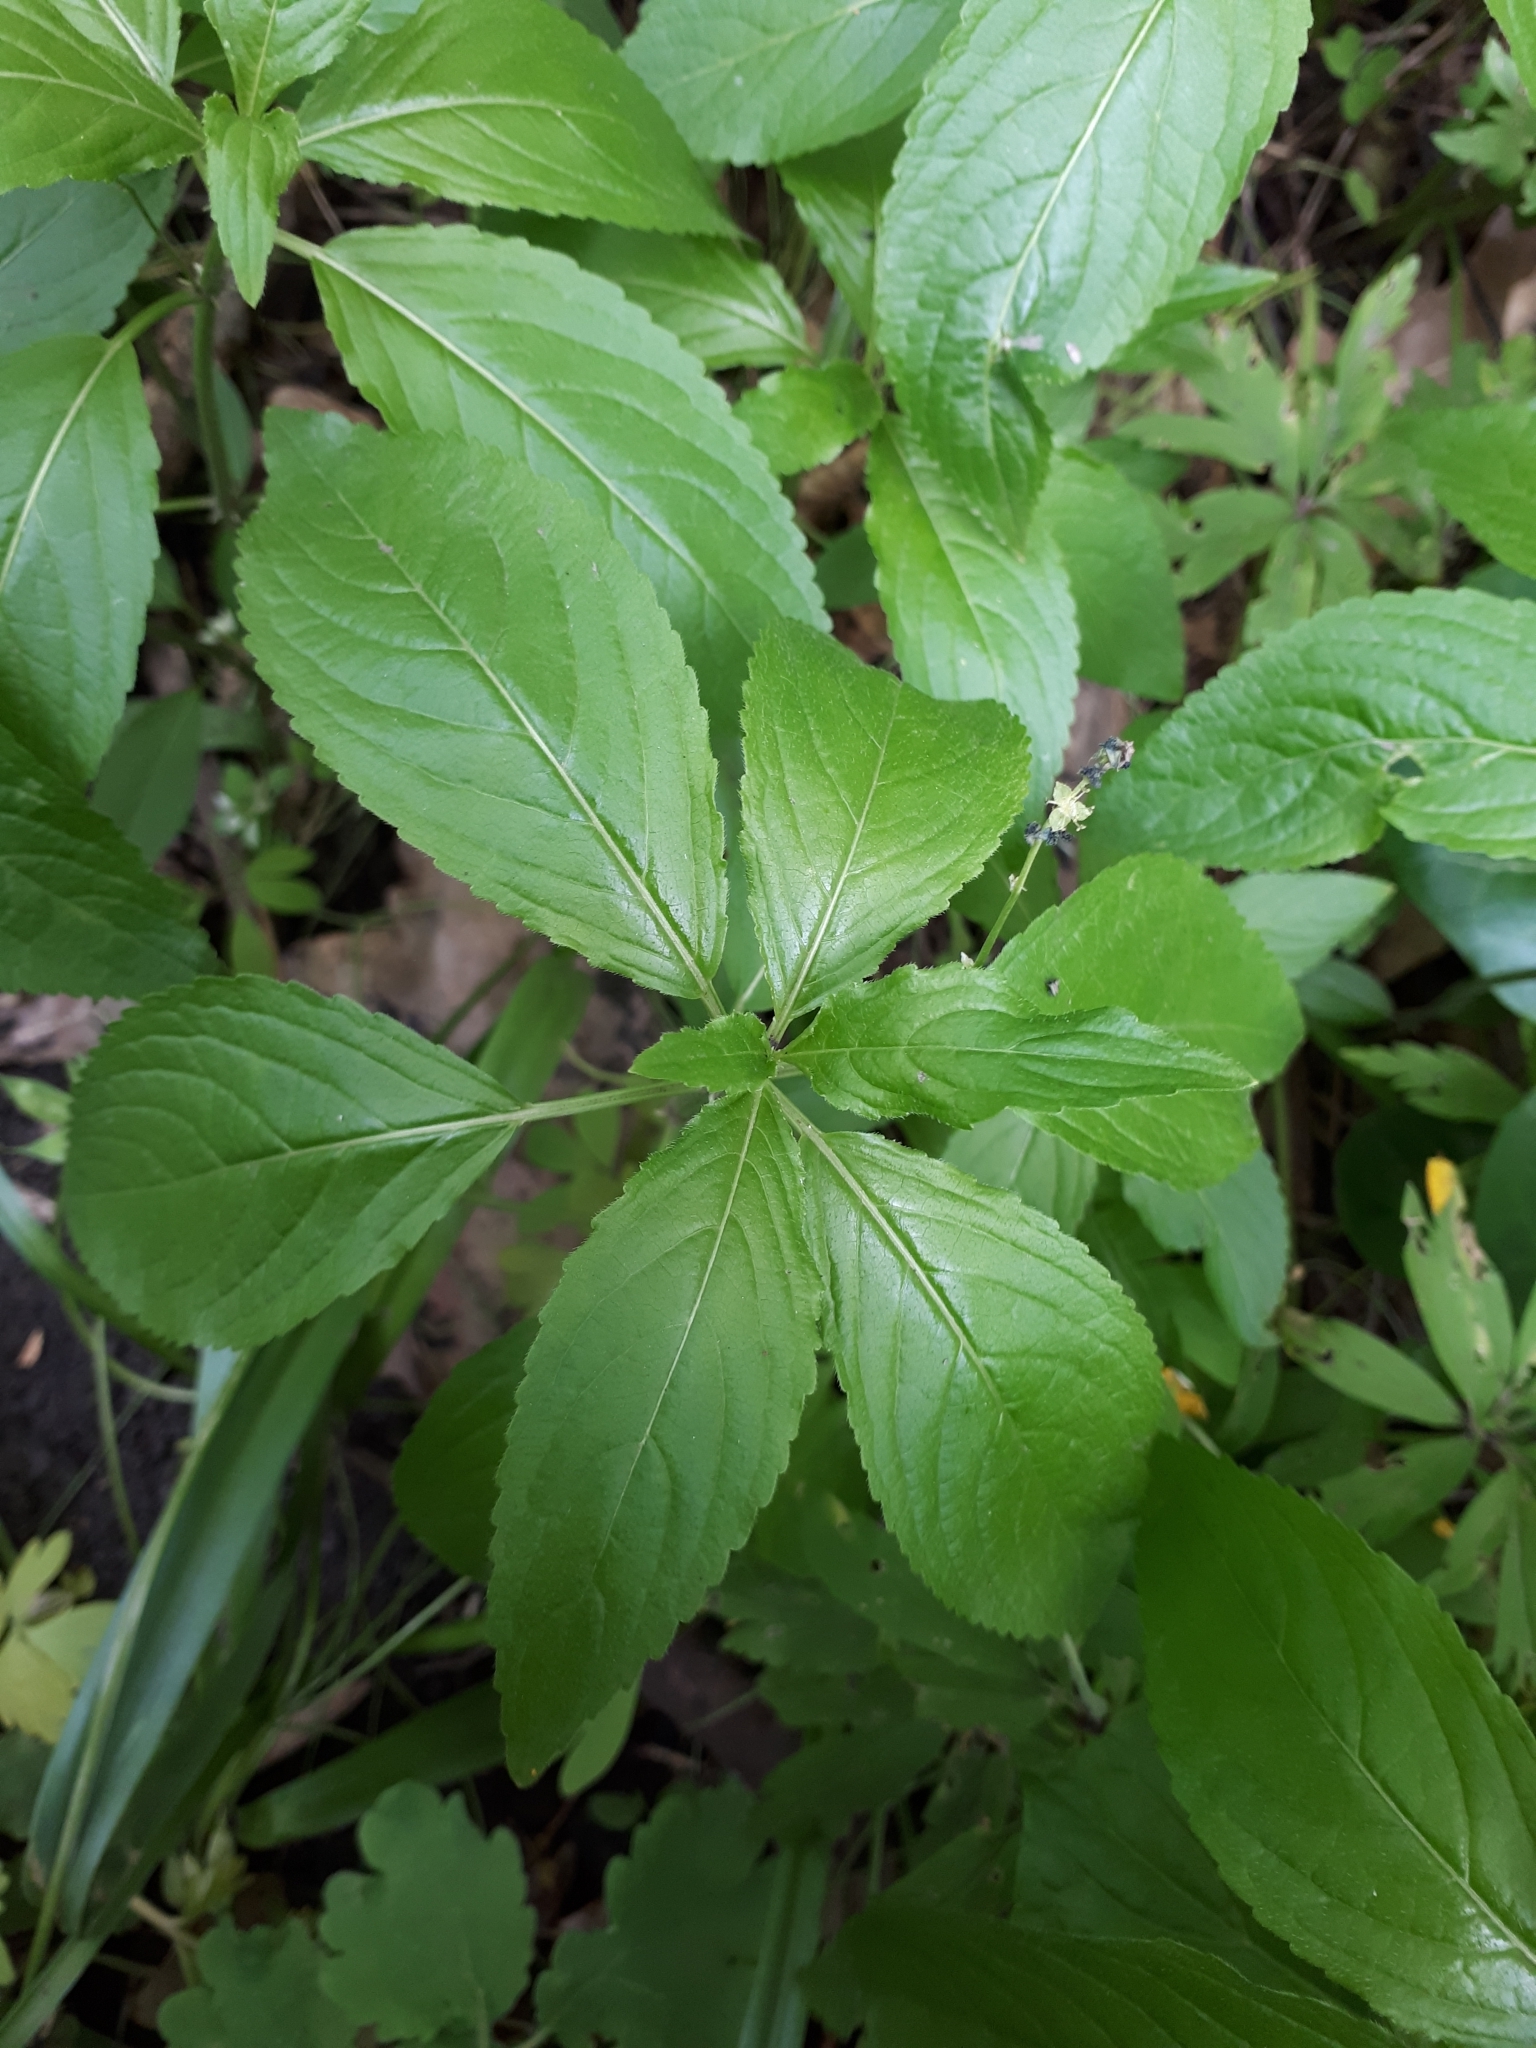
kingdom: Plantae
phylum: Tracheophyta
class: Magnoliopsida
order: Malpighiales
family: Euphorbiaceae
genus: Mercurialis
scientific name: Mercurialis perennis
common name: Dog mercury
